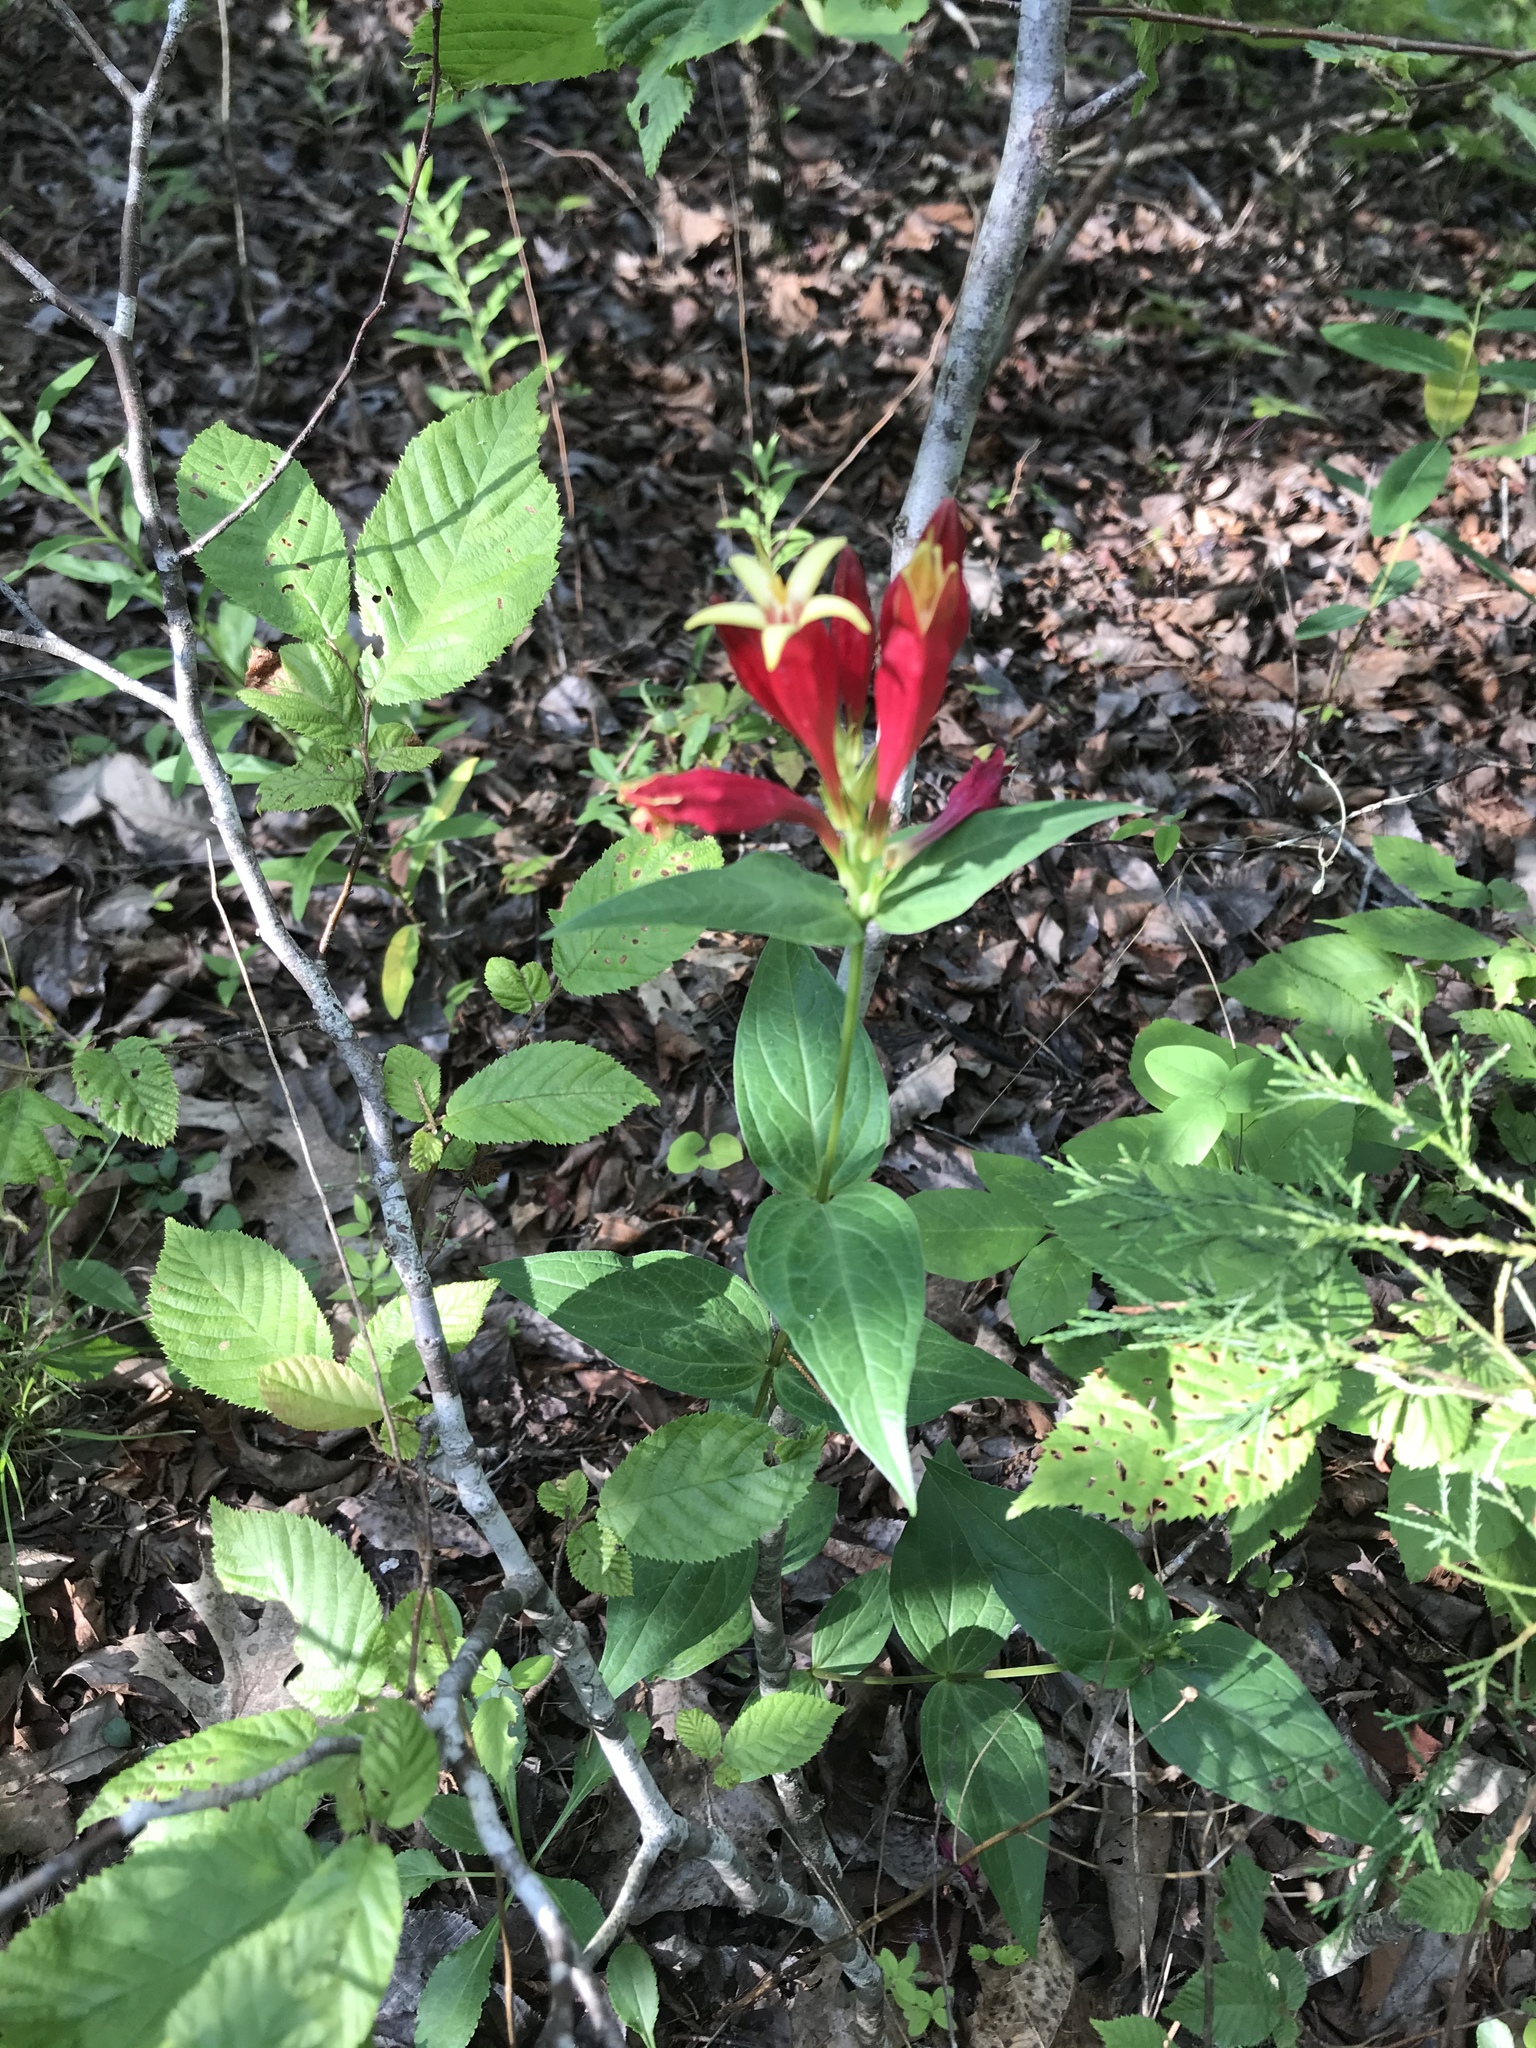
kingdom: Plantae
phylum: Tracheophyta
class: Magnoliopsida
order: Gentianales
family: Loganiaceae
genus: Spigelia
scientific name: Spigelia marilandica
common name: Indian-pink
